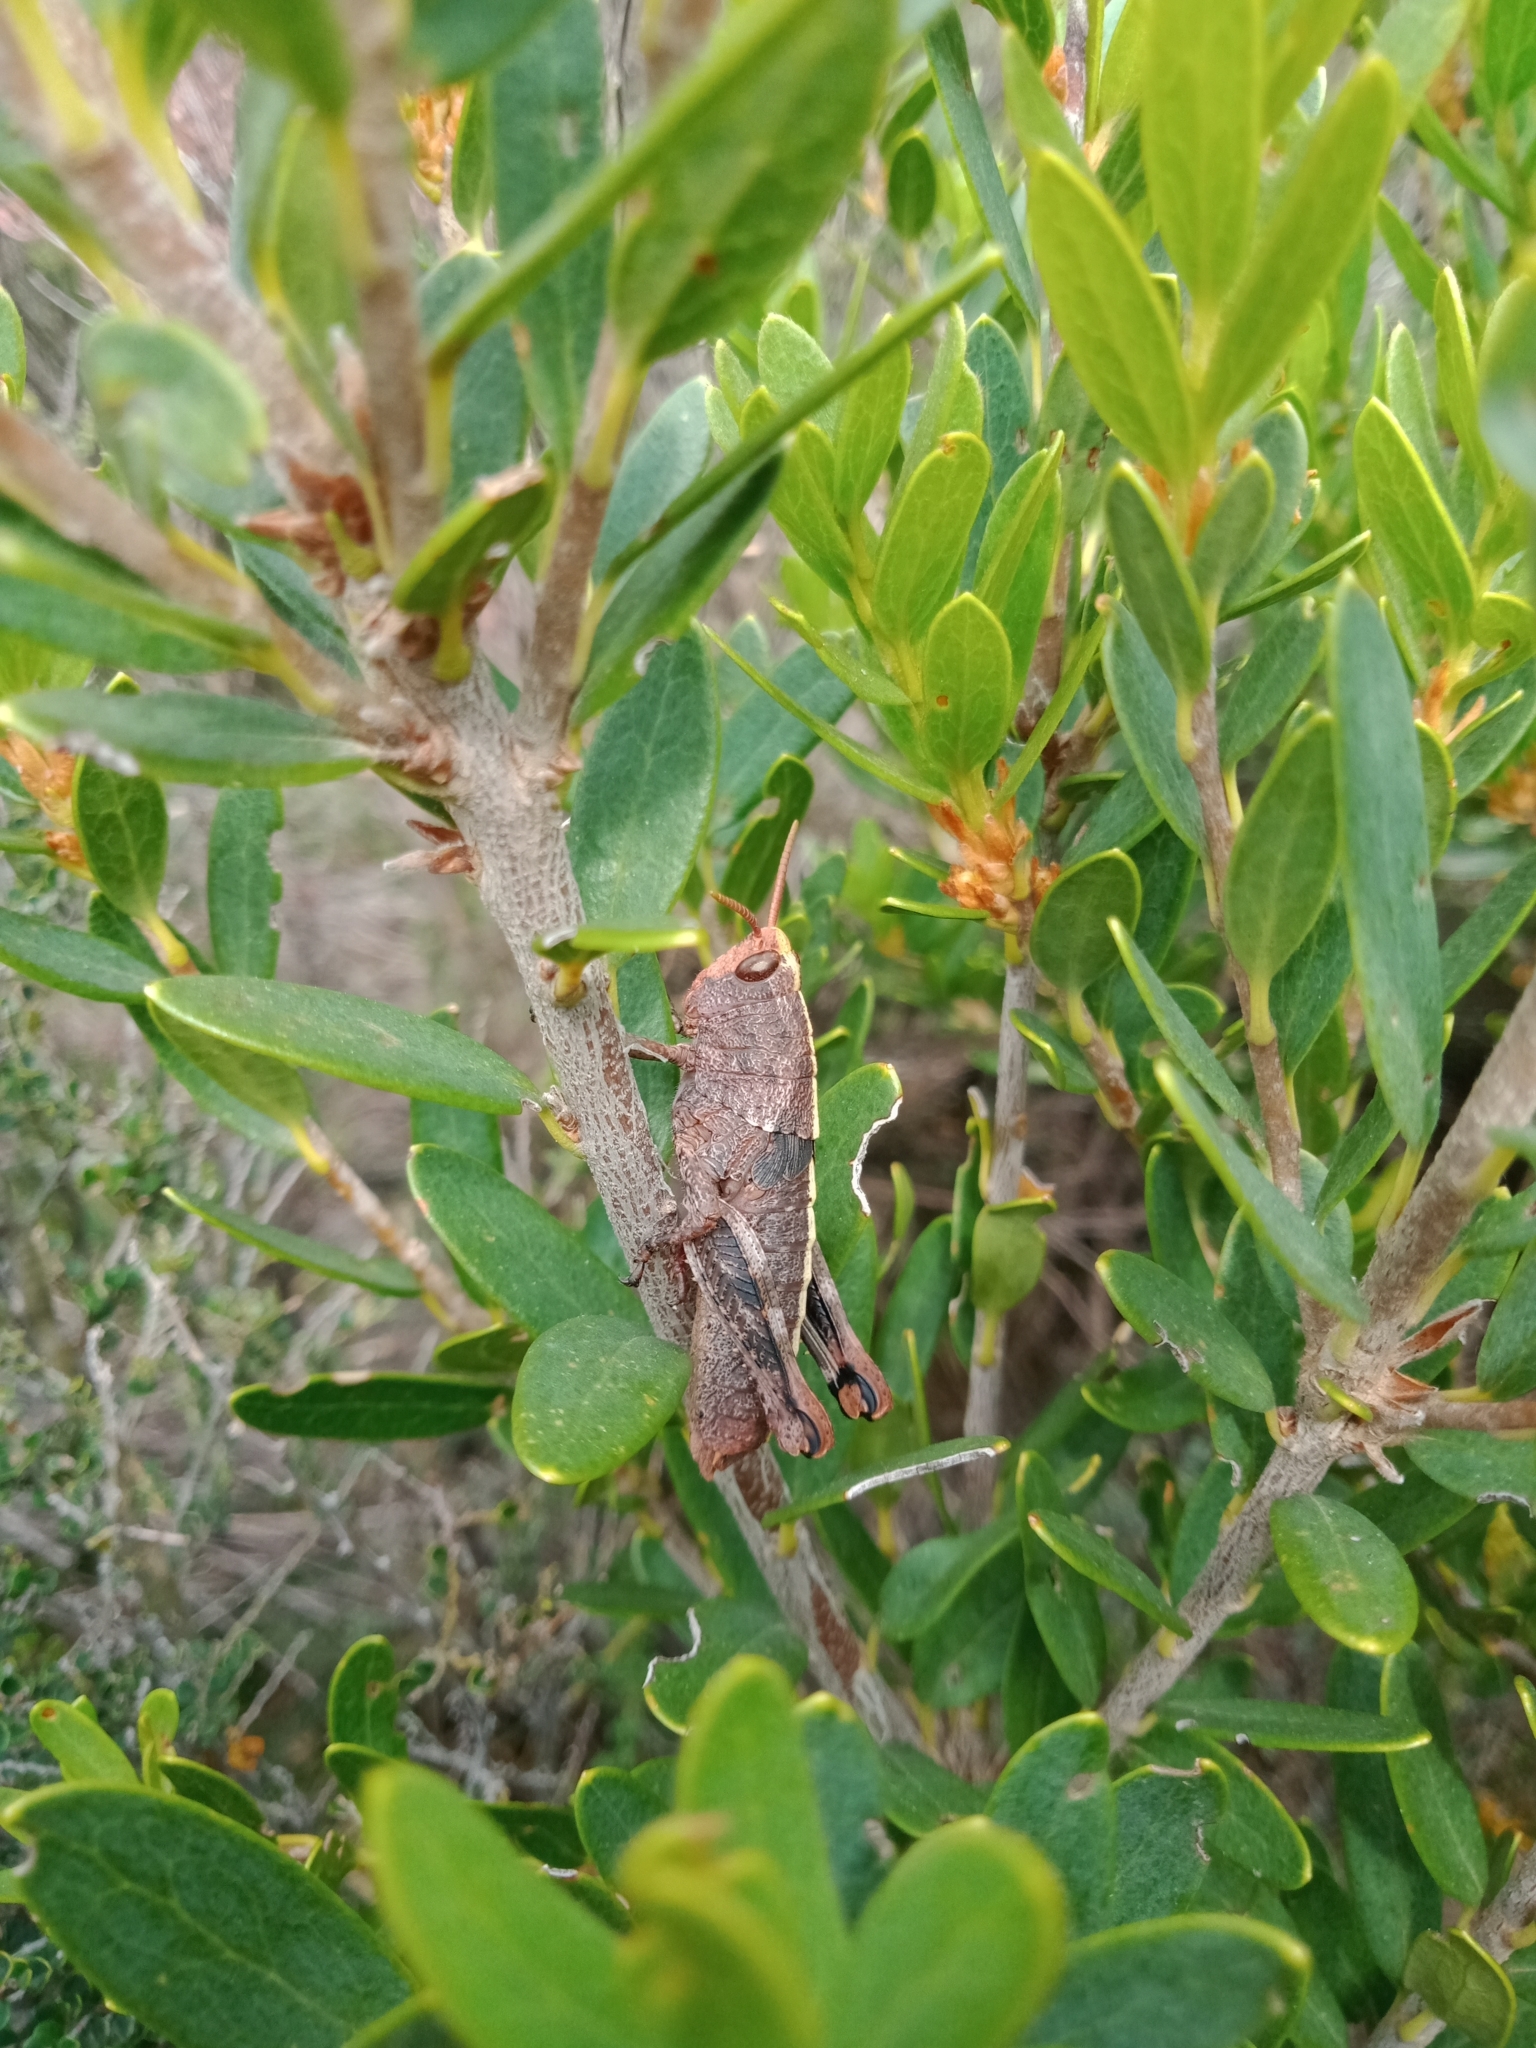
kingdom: Animalia
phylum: Arthropoda
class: Insecta
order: Orthoptera
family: Acrididae
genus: Percassa
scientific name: Percassa rugifrons
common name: Mountain grasshopper
